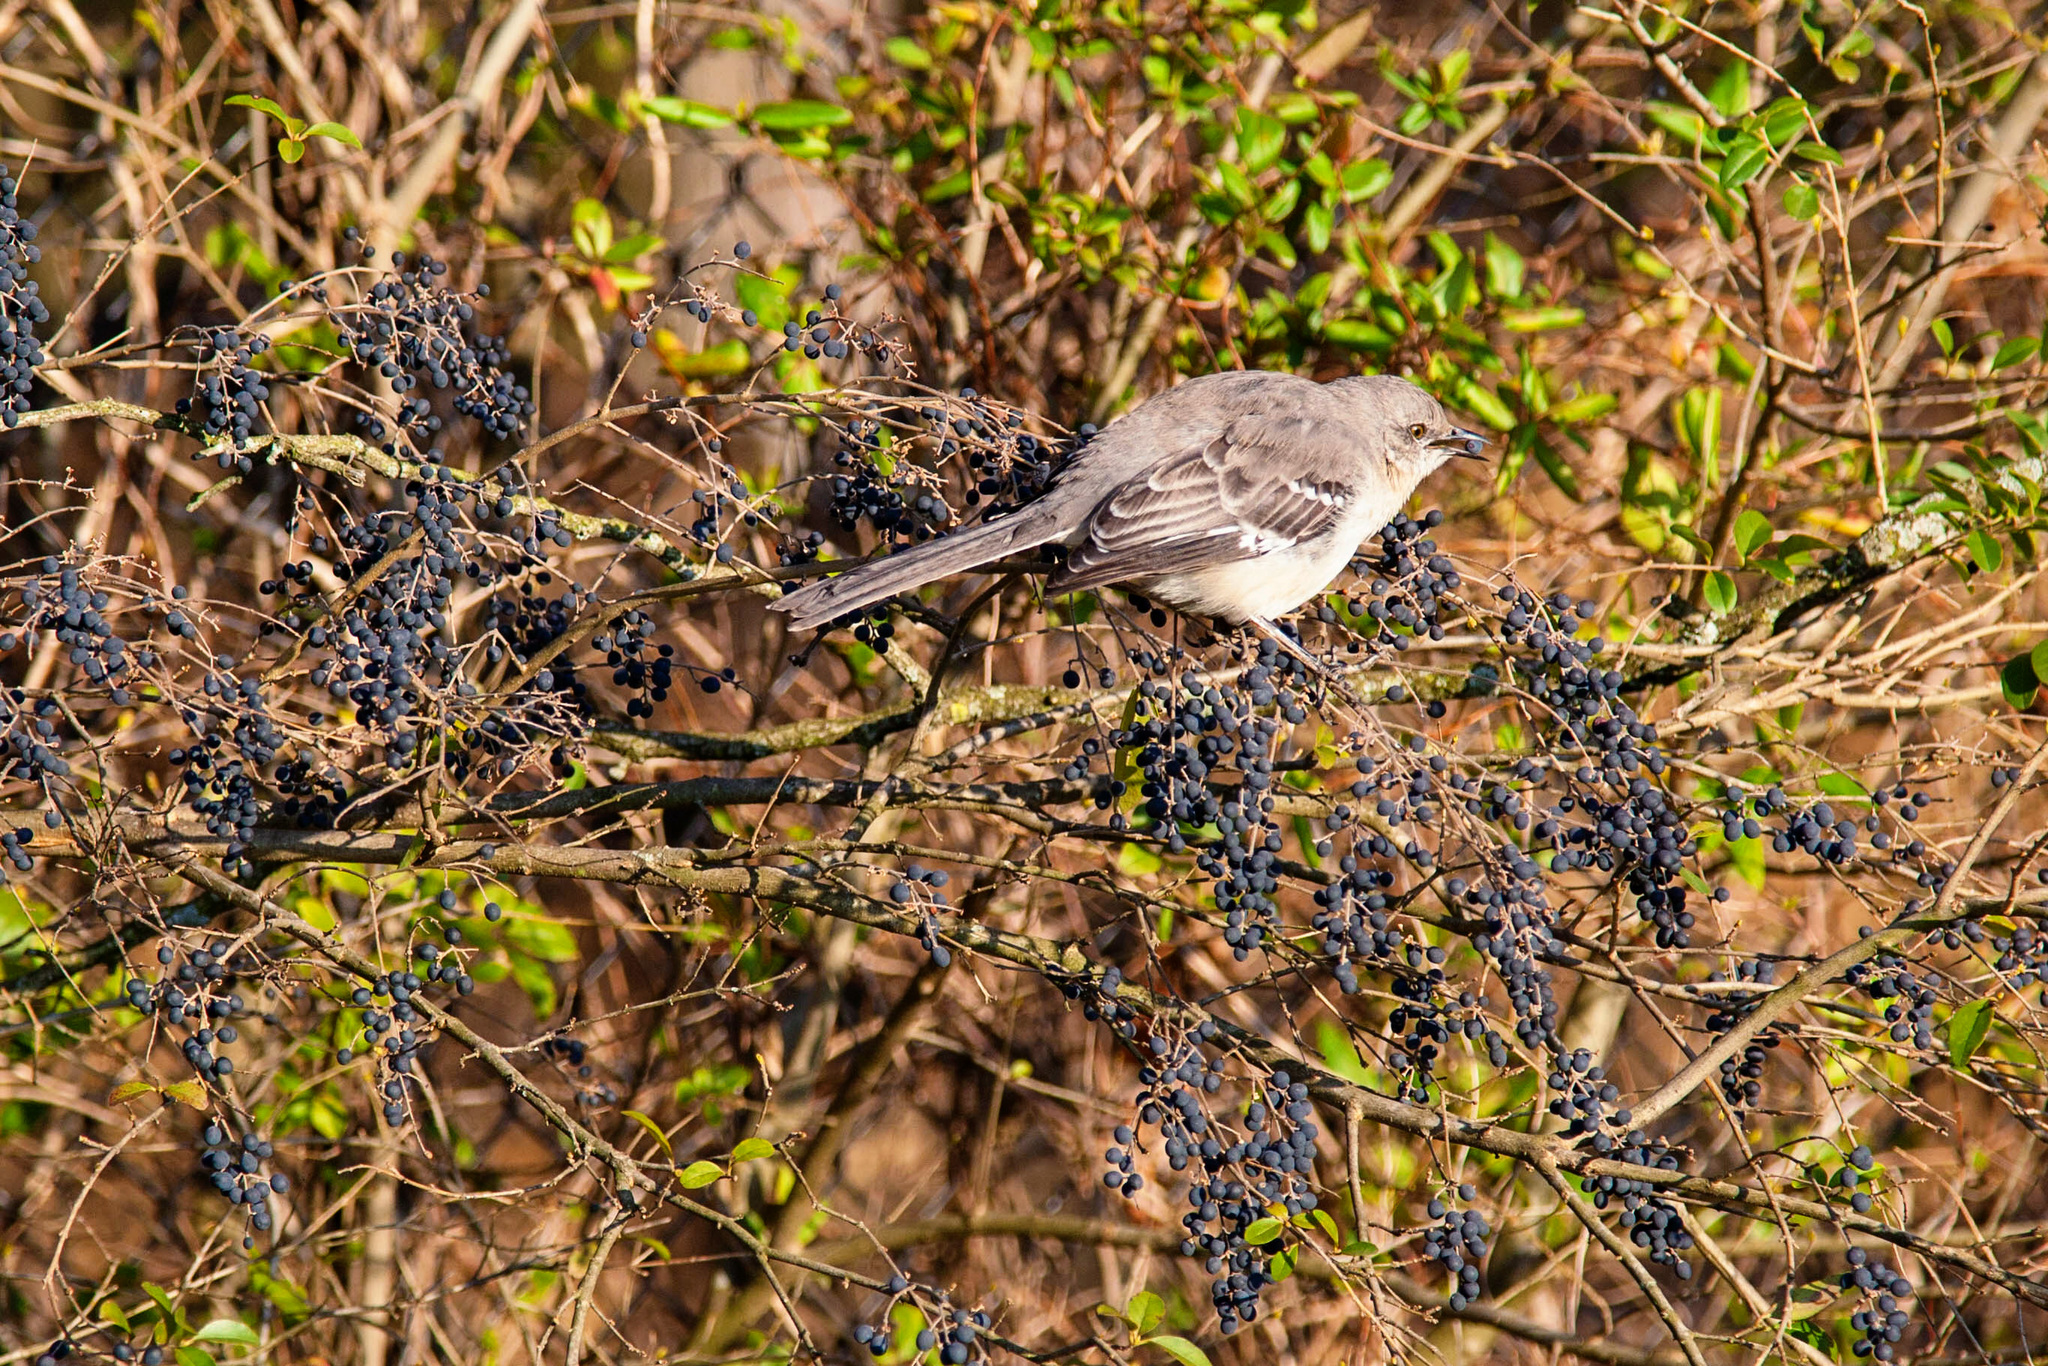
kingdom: Animalia
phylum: Chordata
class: Aves
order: Passeriformes
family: Mimidae
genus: Mimus
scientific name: Mimus polyglottos
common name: Northern mockingbird
